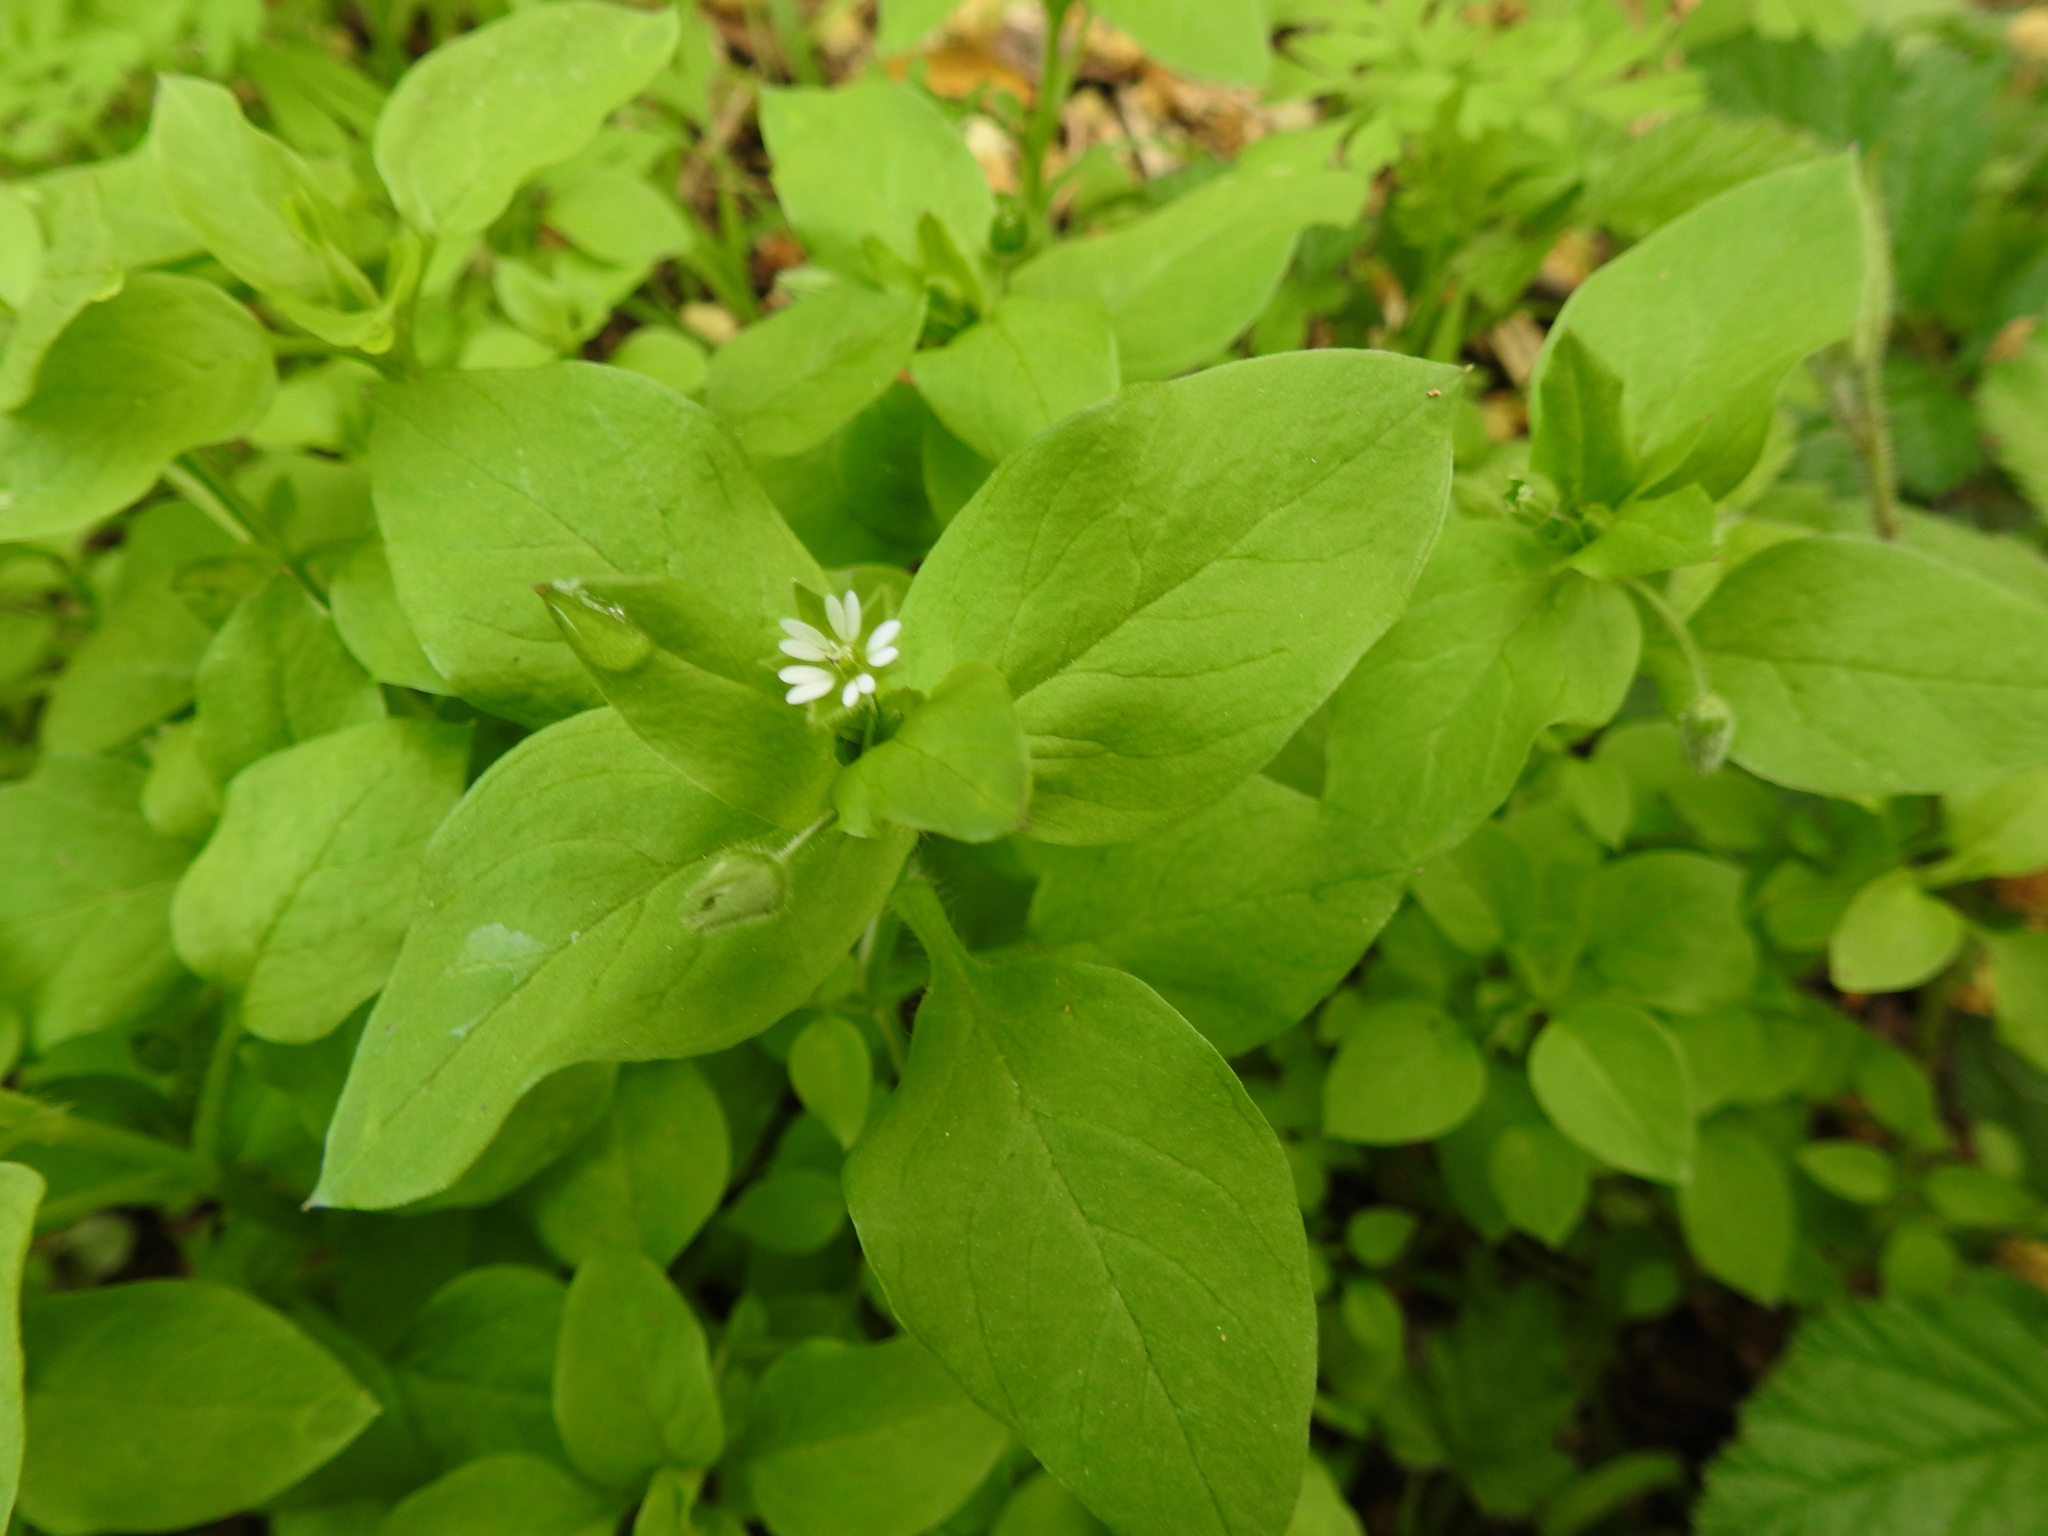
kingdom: Plantae
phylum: Tracheophyta
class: Magnoliopsida
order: Caryophyllales
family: Caryophyllaceae
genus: Stellaria
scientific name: Stellaria media
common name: Common chickweed
